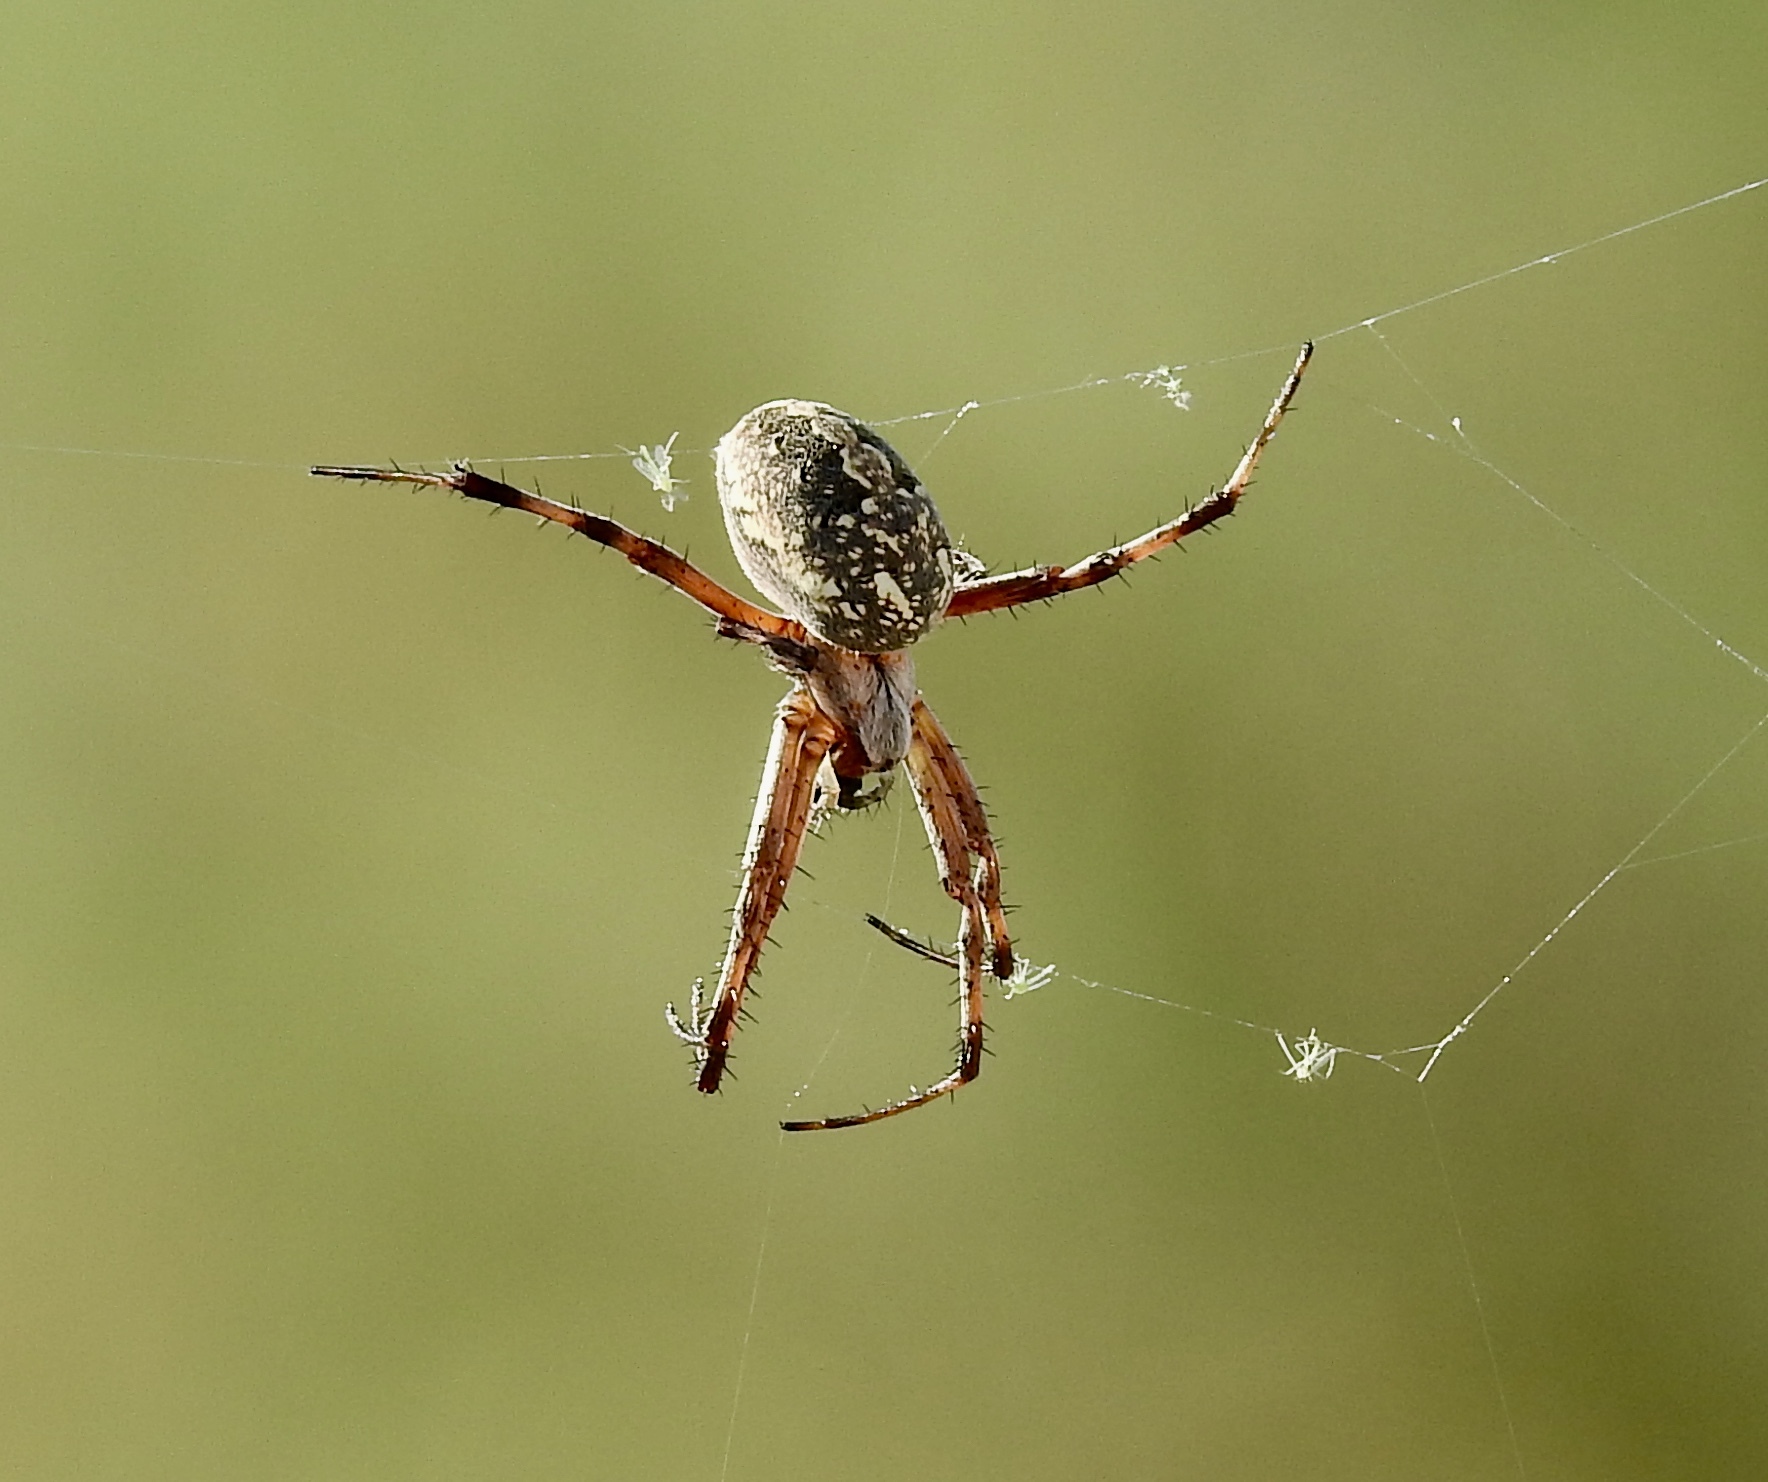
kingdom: Animalia
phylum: Arthropoda
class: Arachnida
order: Araneae
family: Araneidae
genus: Neoscona
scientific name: Neoscona oaxacensis
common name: Orb weavers
